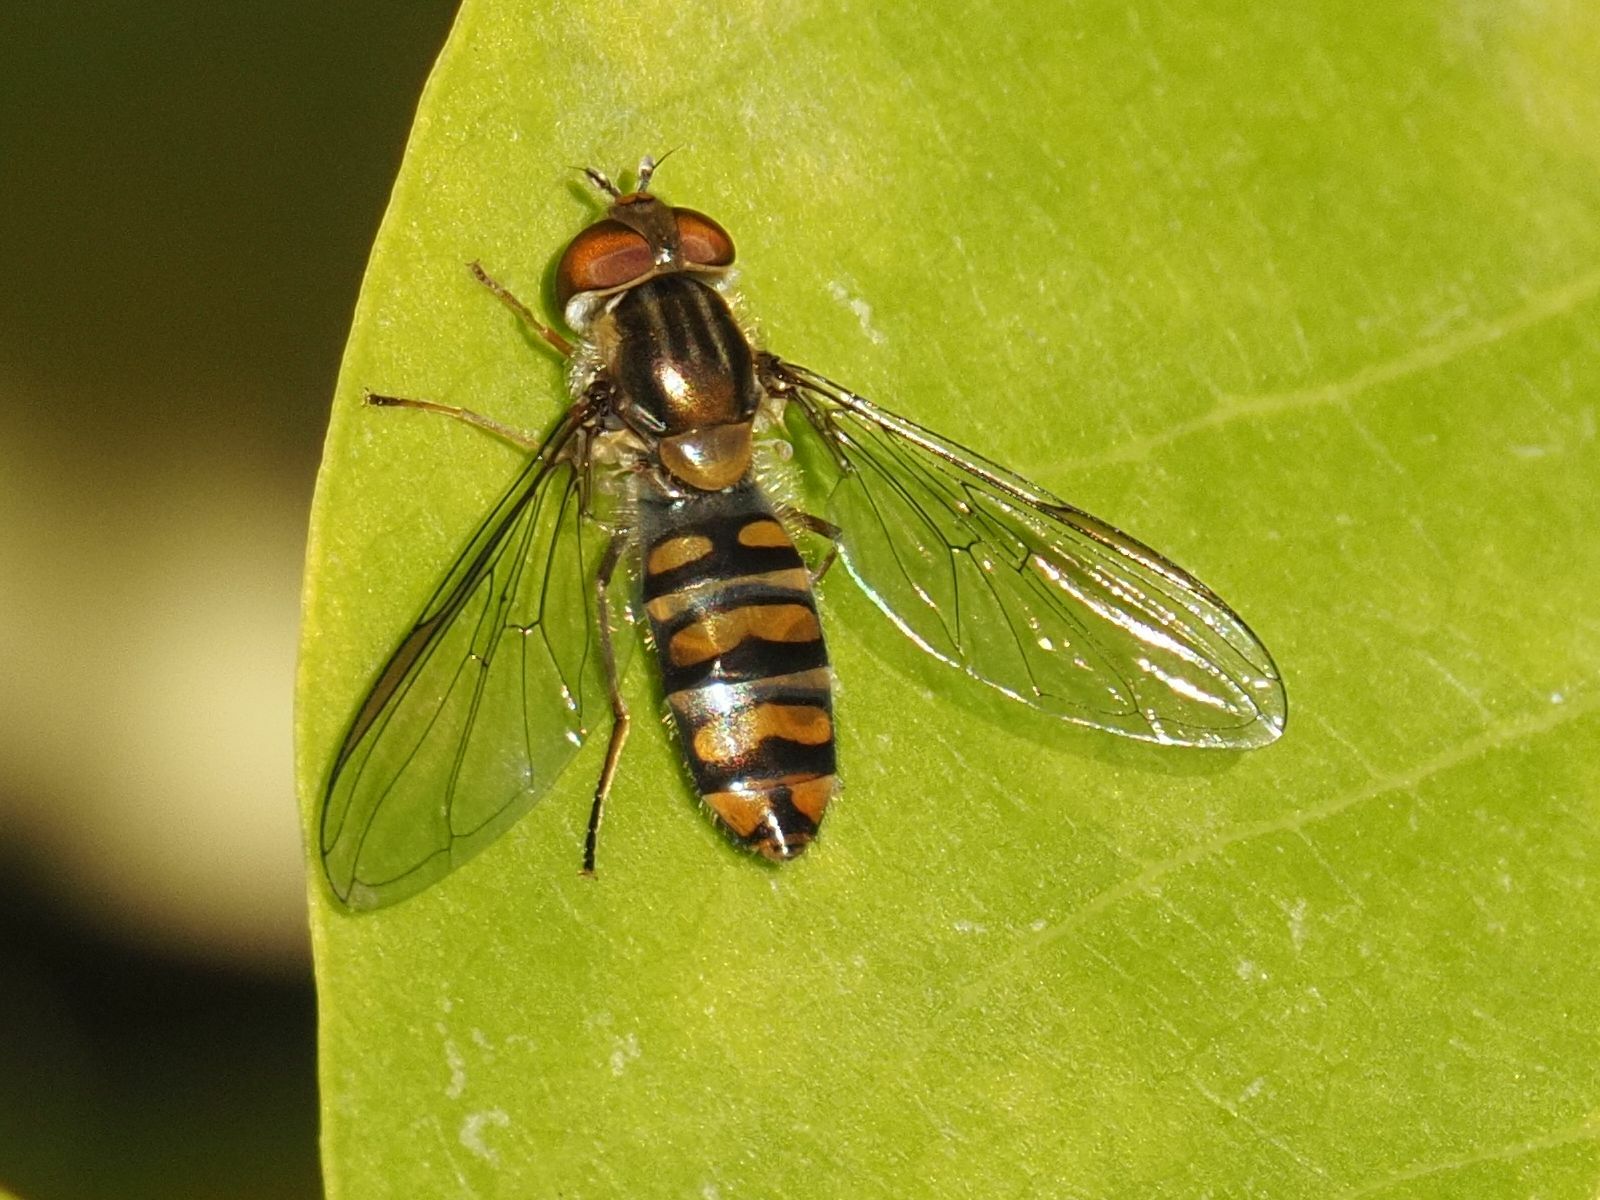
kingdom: Animalia
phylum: Arthropoda
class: Insecta
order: Diptera
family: Syrphidae
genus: Episyrphus
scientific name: Episyrphus balteatus
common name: Marmalade hoverfly
